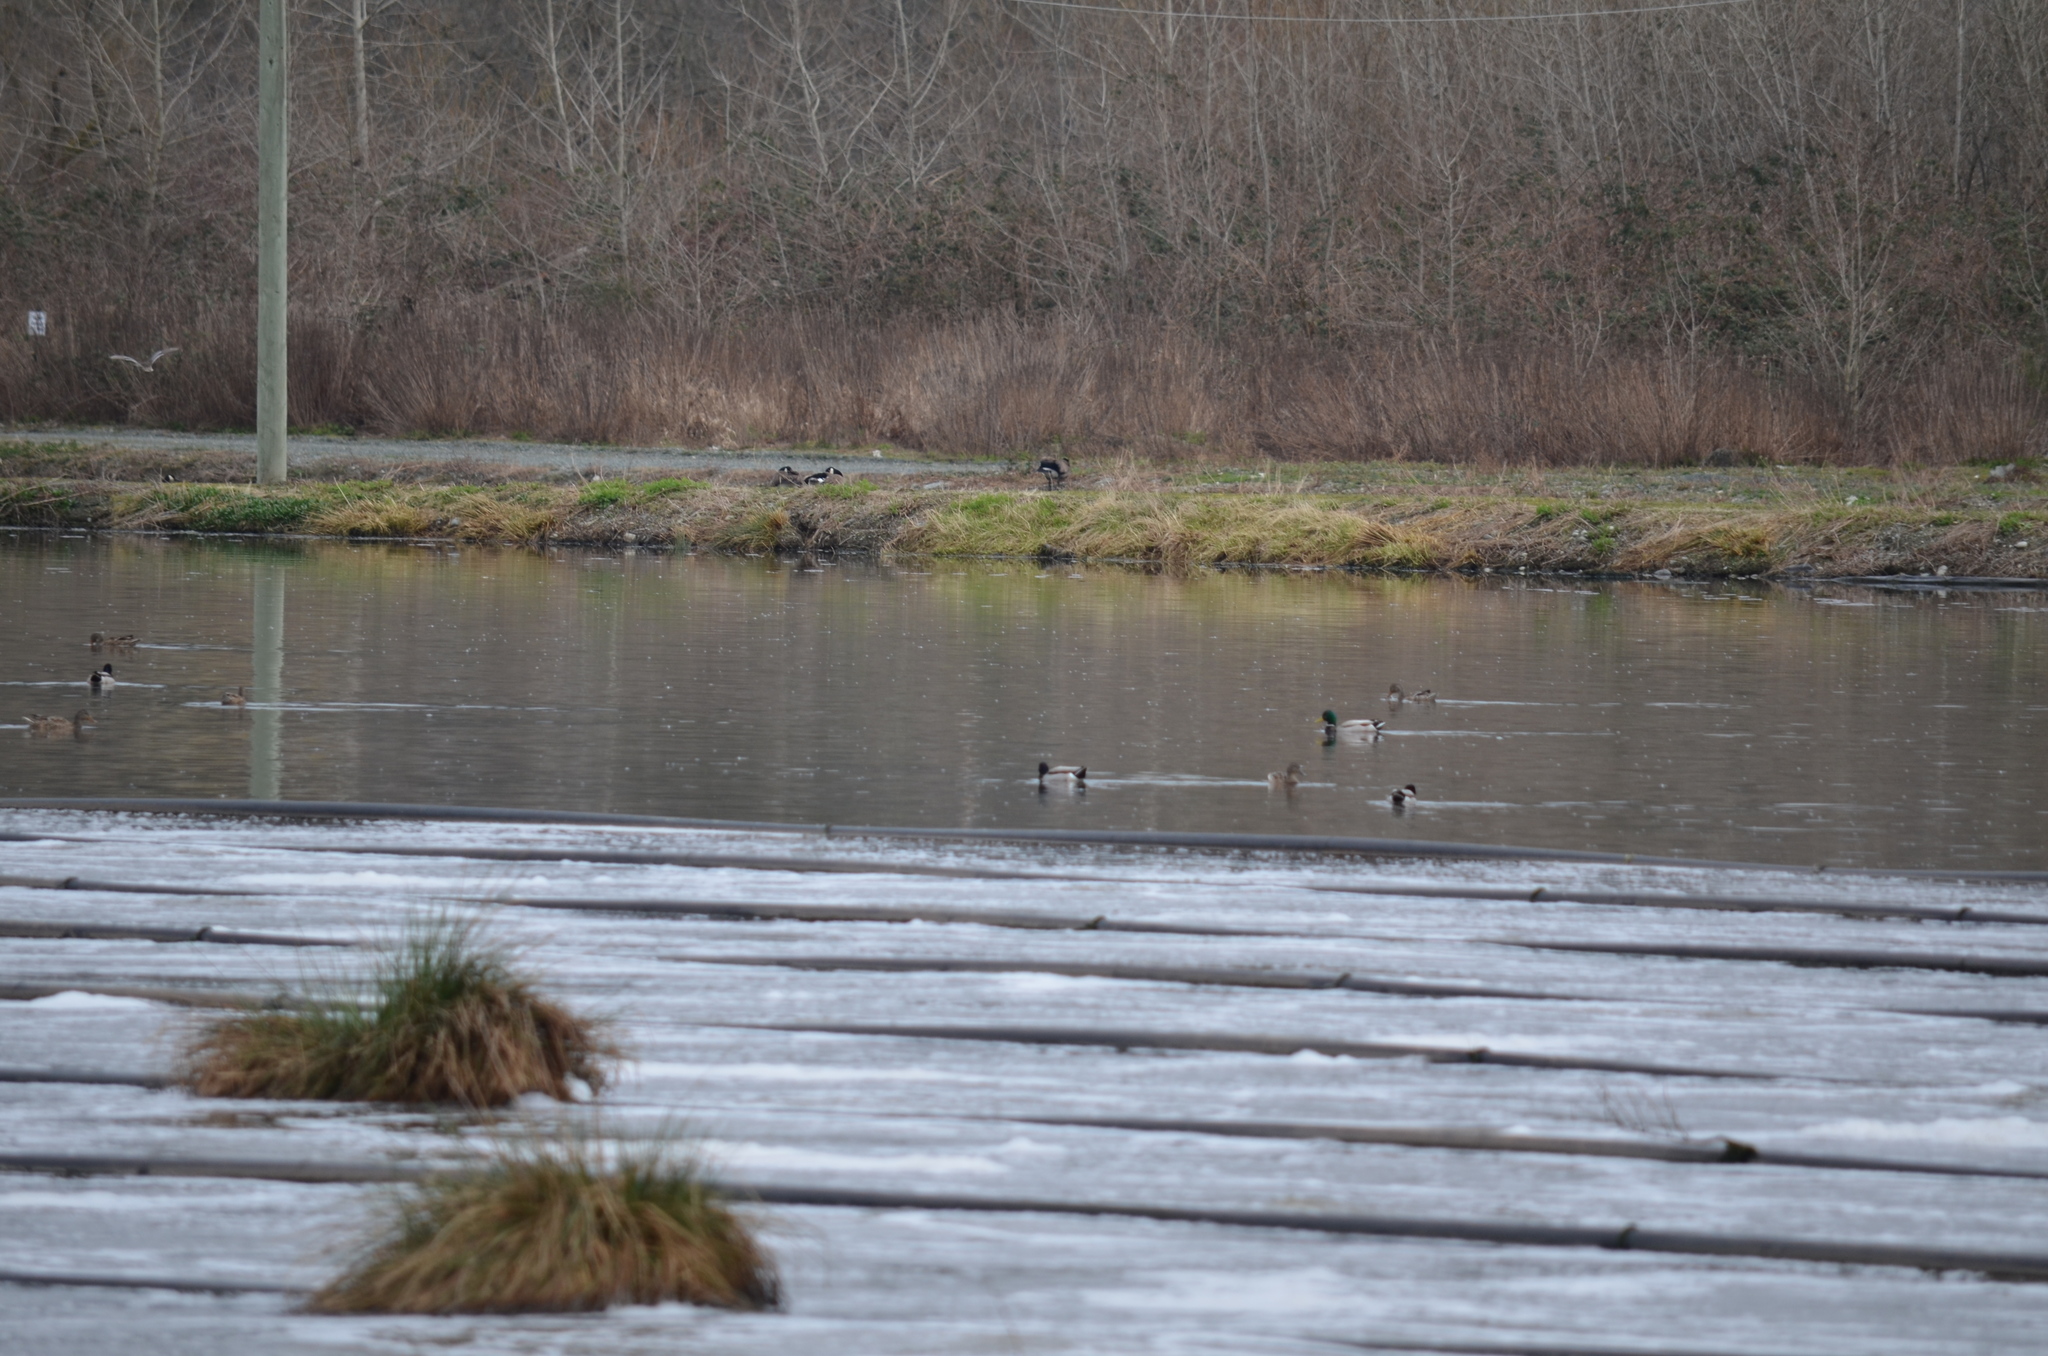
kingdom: Animalia
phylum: Chordata
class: Aves
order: Anseriformes
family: Anatidae
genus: Anas
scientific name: Anas platyrhynchos
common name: Mallard
